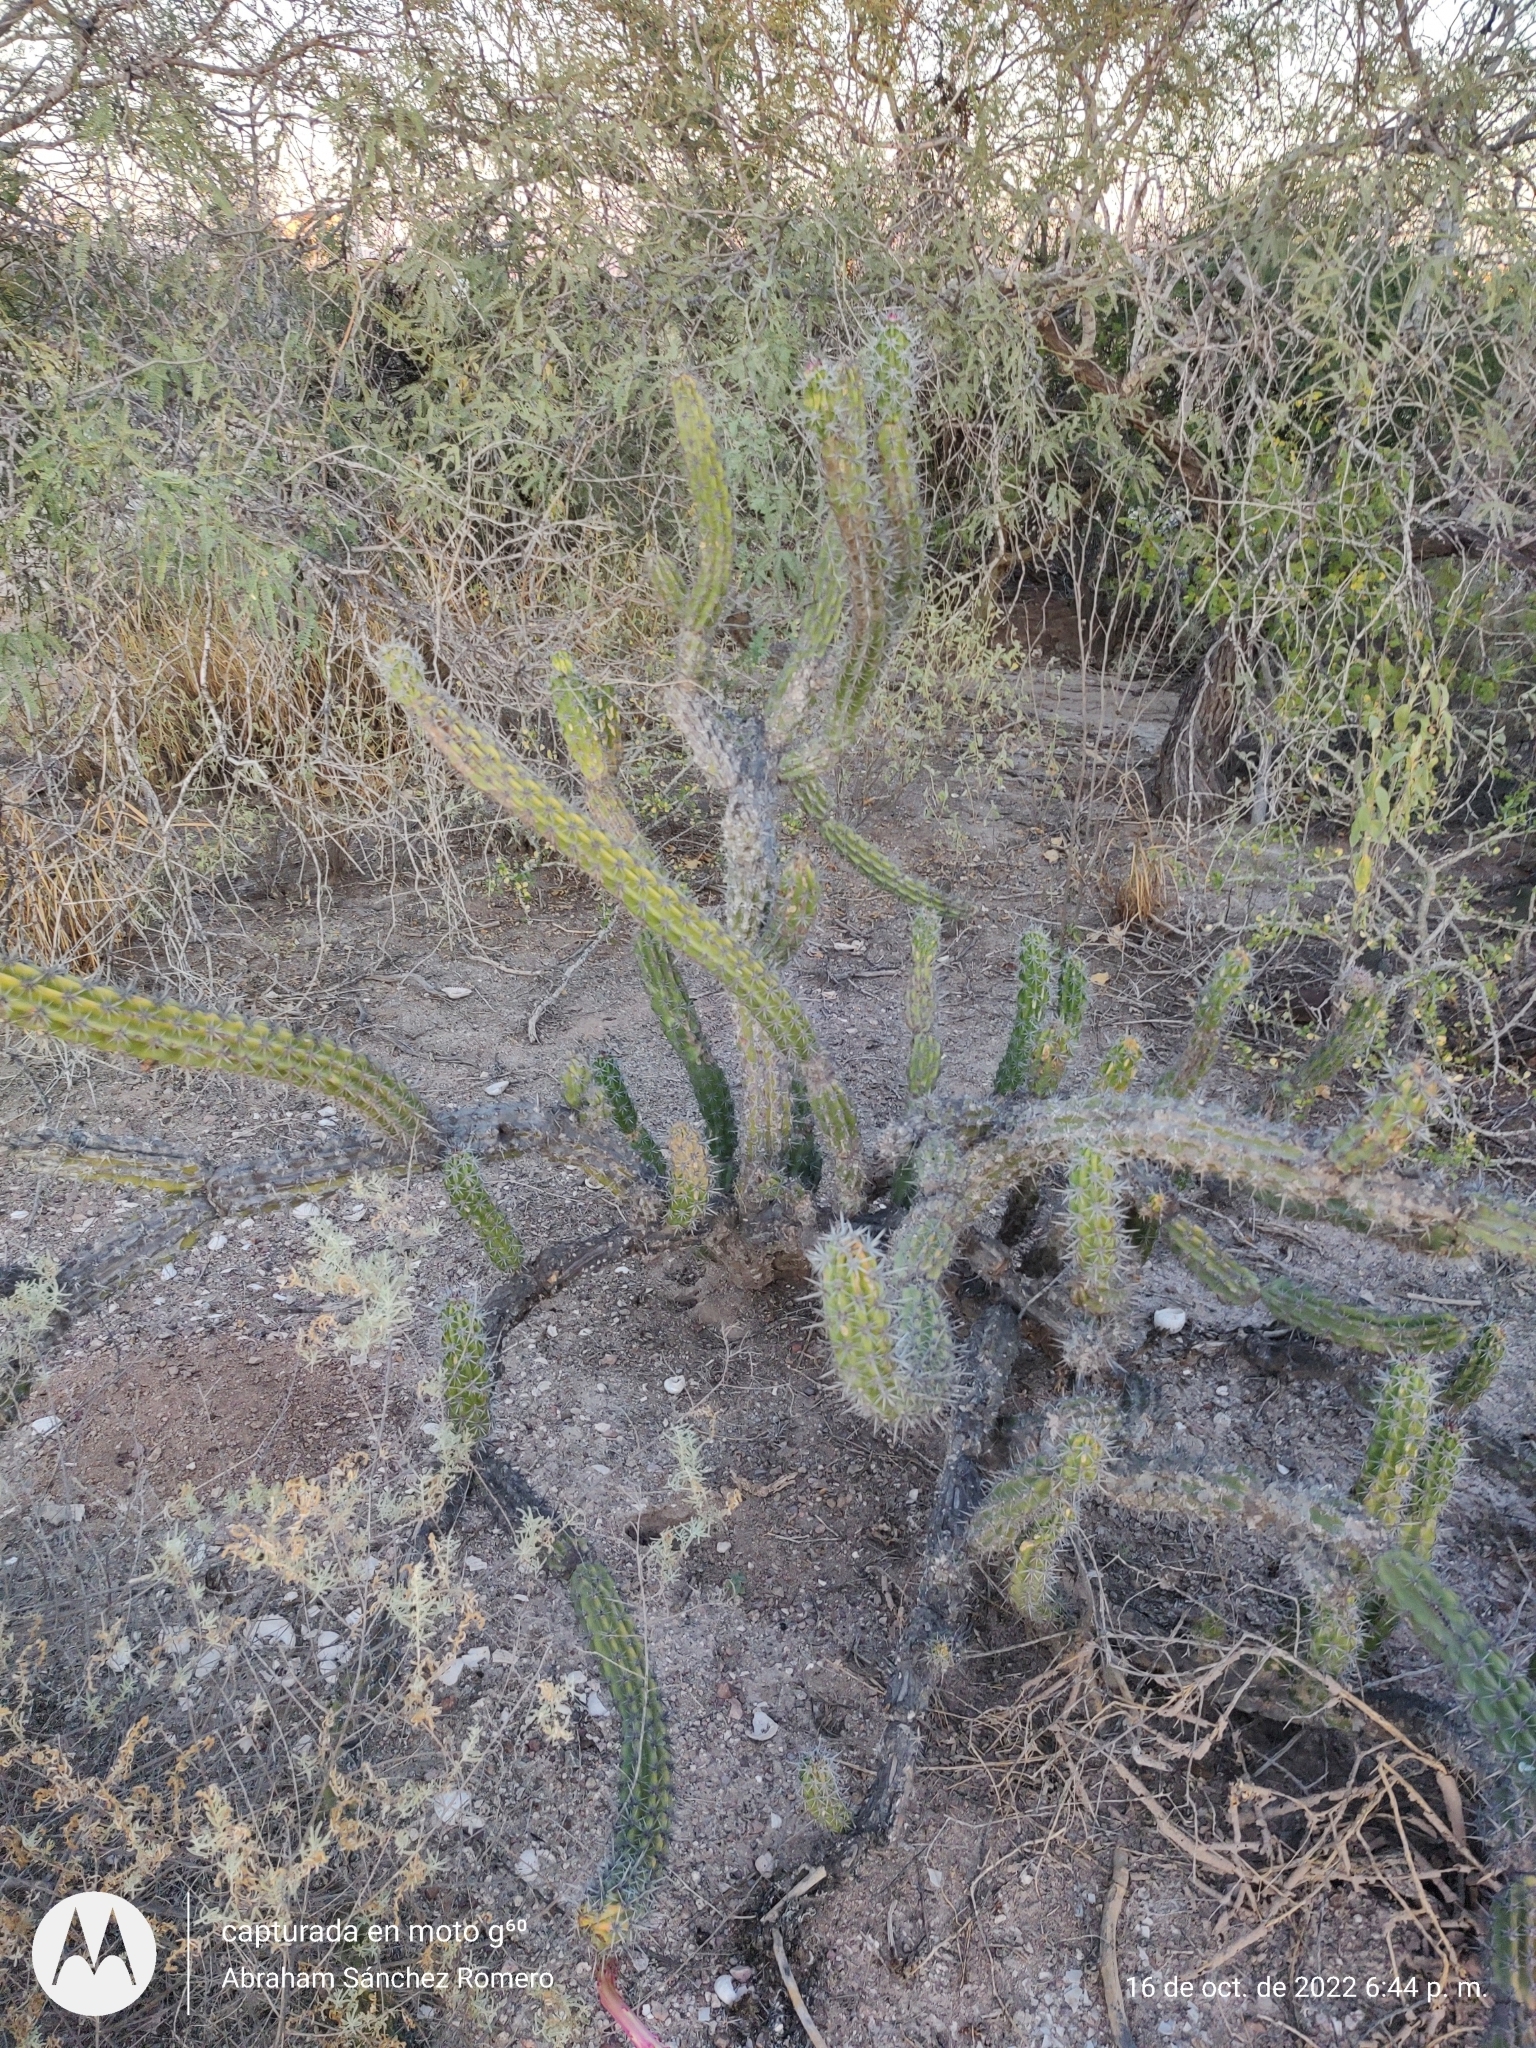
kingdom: Plantae
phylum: Tracheophyta
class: Magnoliopsida
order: Caryophyllales
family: Cactaceae
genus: Stenocereus
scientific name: Stenocereus gummosus
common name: Dagger cactus
